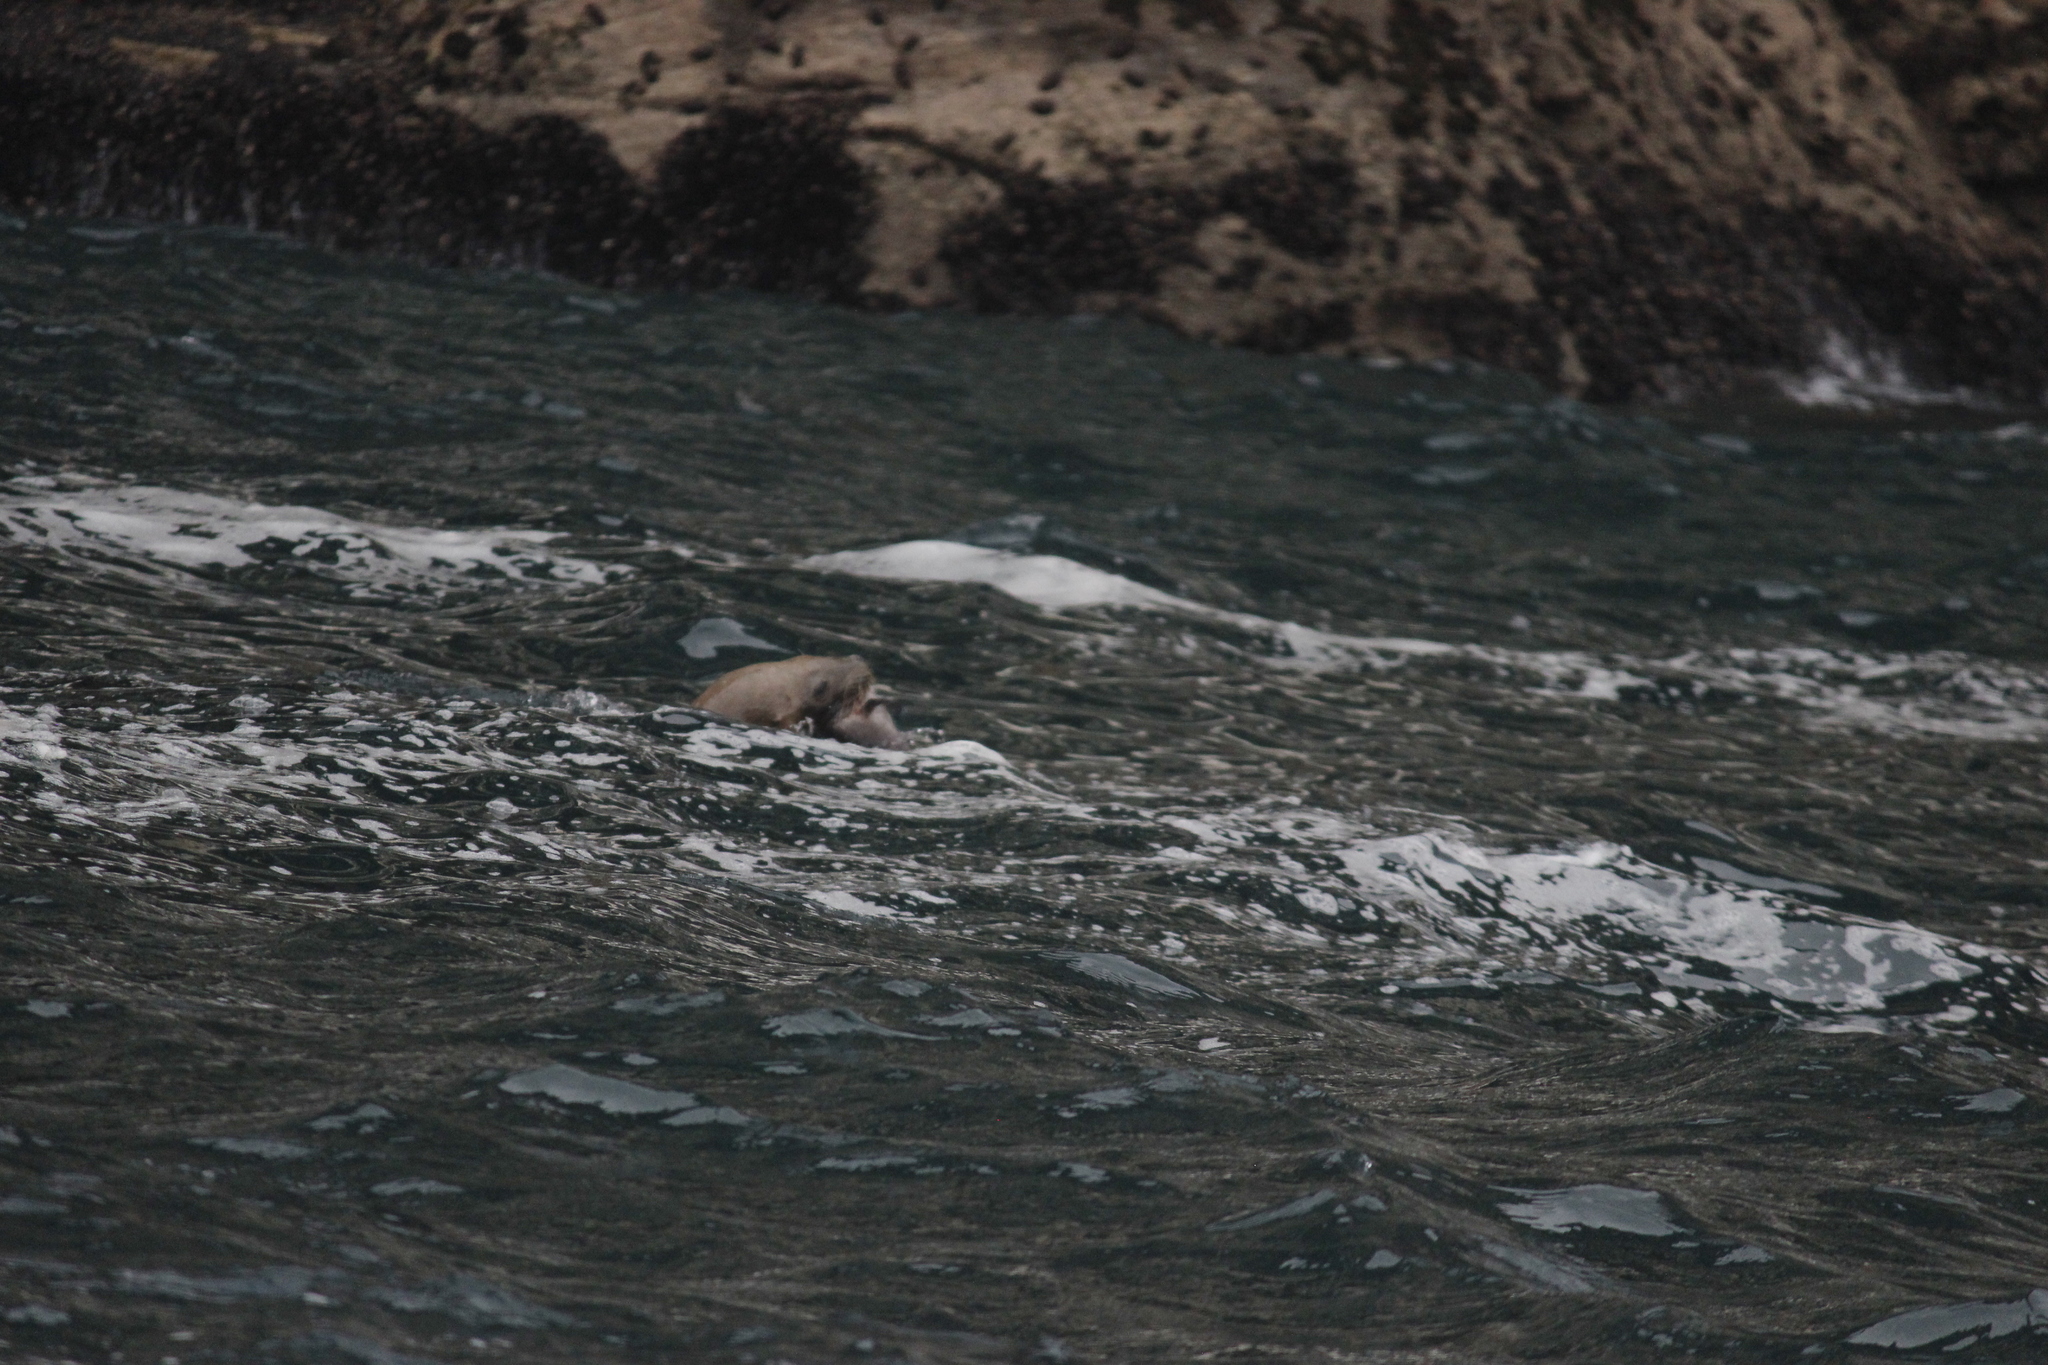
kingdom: Animalia
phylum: Chordata
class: Mammalia
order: Carnivora
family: Otariidae
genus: Otaria
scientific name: Otaria byronia
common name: South american sea lion
